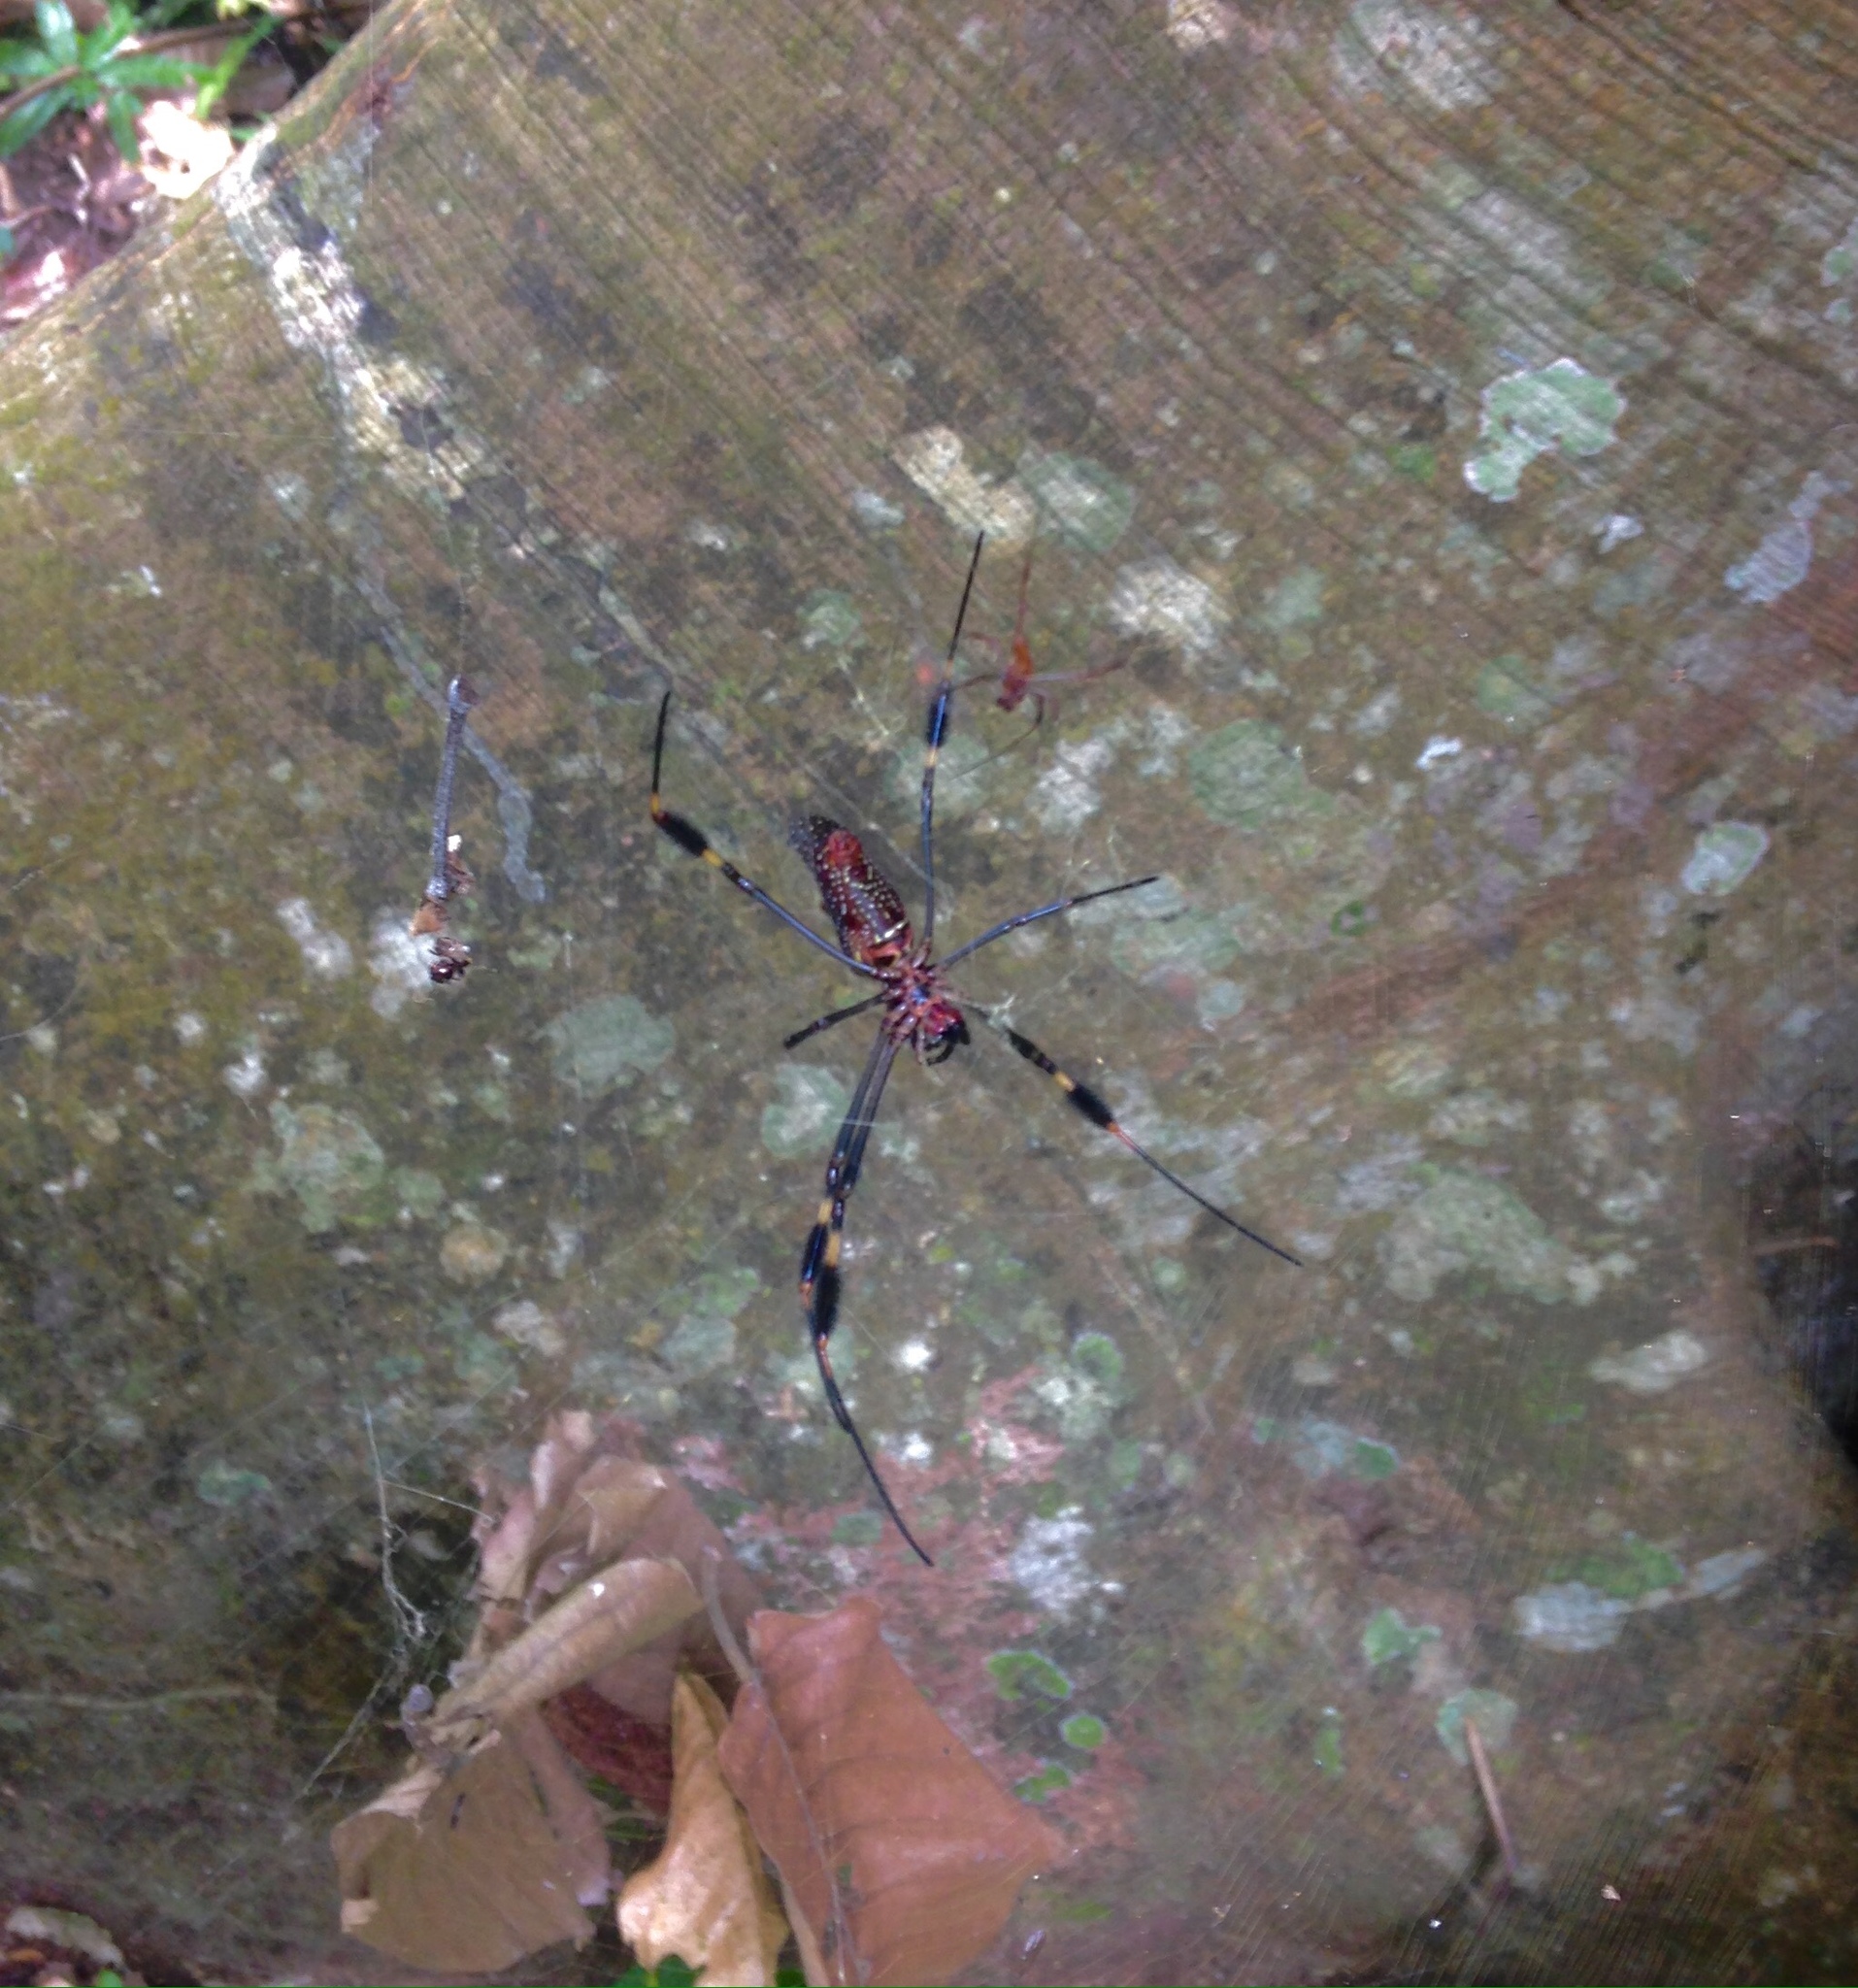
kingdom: Animalia
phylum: Arthropoda
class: Arachnida
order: Araneae
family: Araneidae
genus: Trichonephila
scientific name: Trichonephila clavipes
